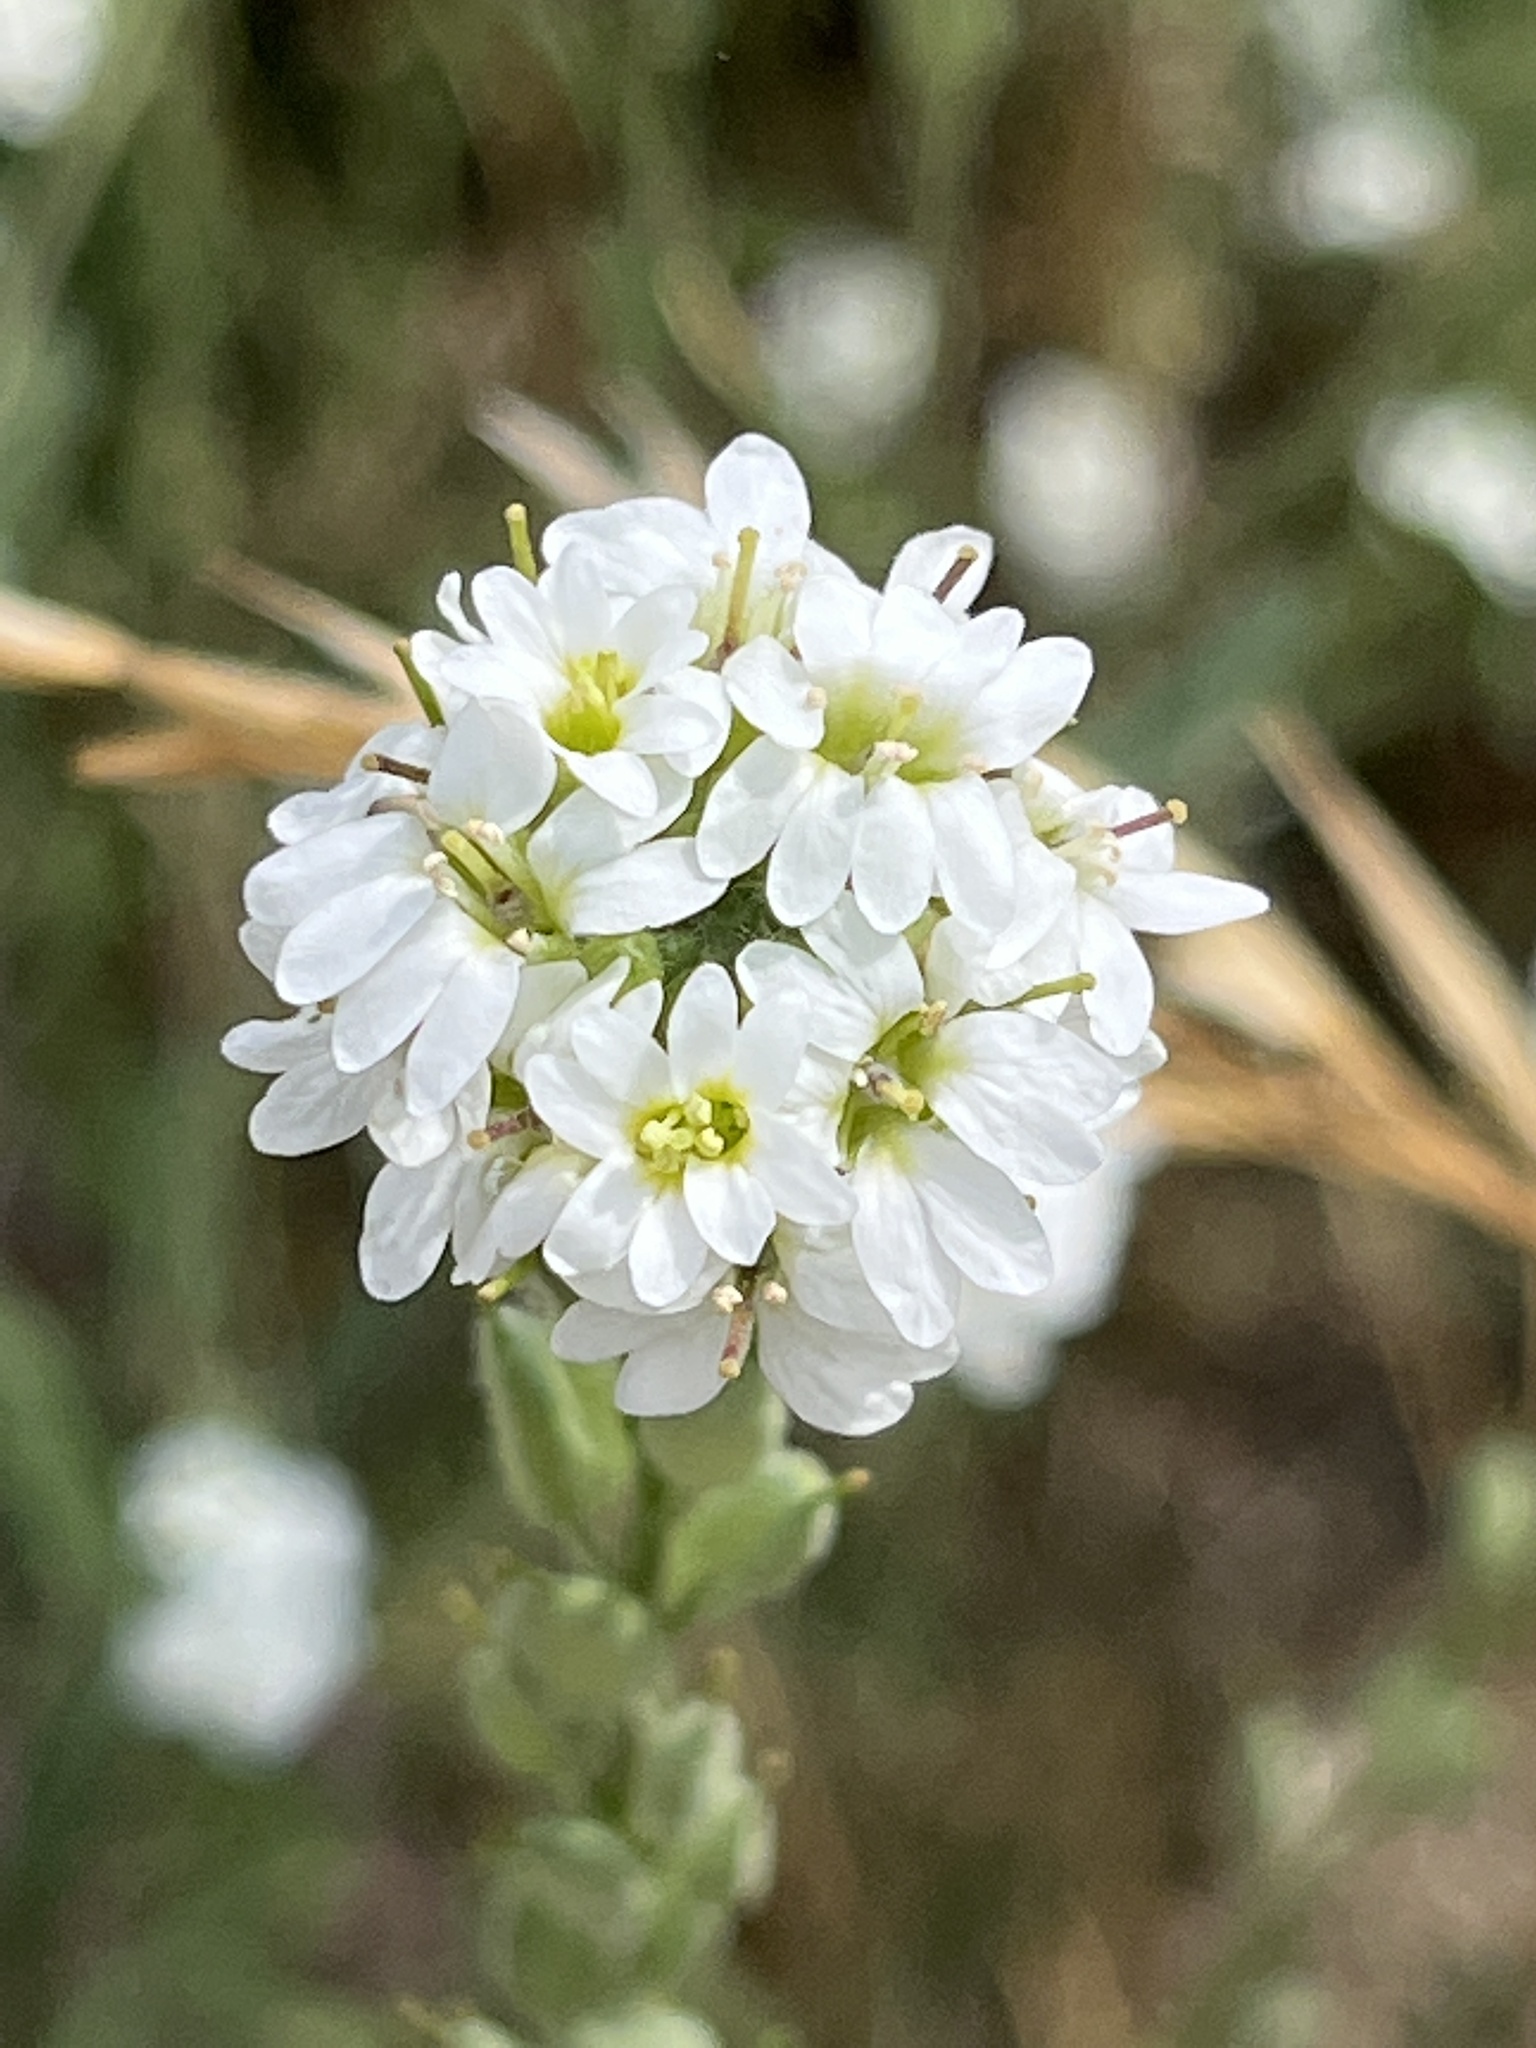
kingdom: Plantae
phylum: Tracheophyta
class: Magnoliopsida
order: Brassicales
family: Brassicaceae
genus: Berteroa
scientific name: Berteroa incana
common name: Hoary alison
